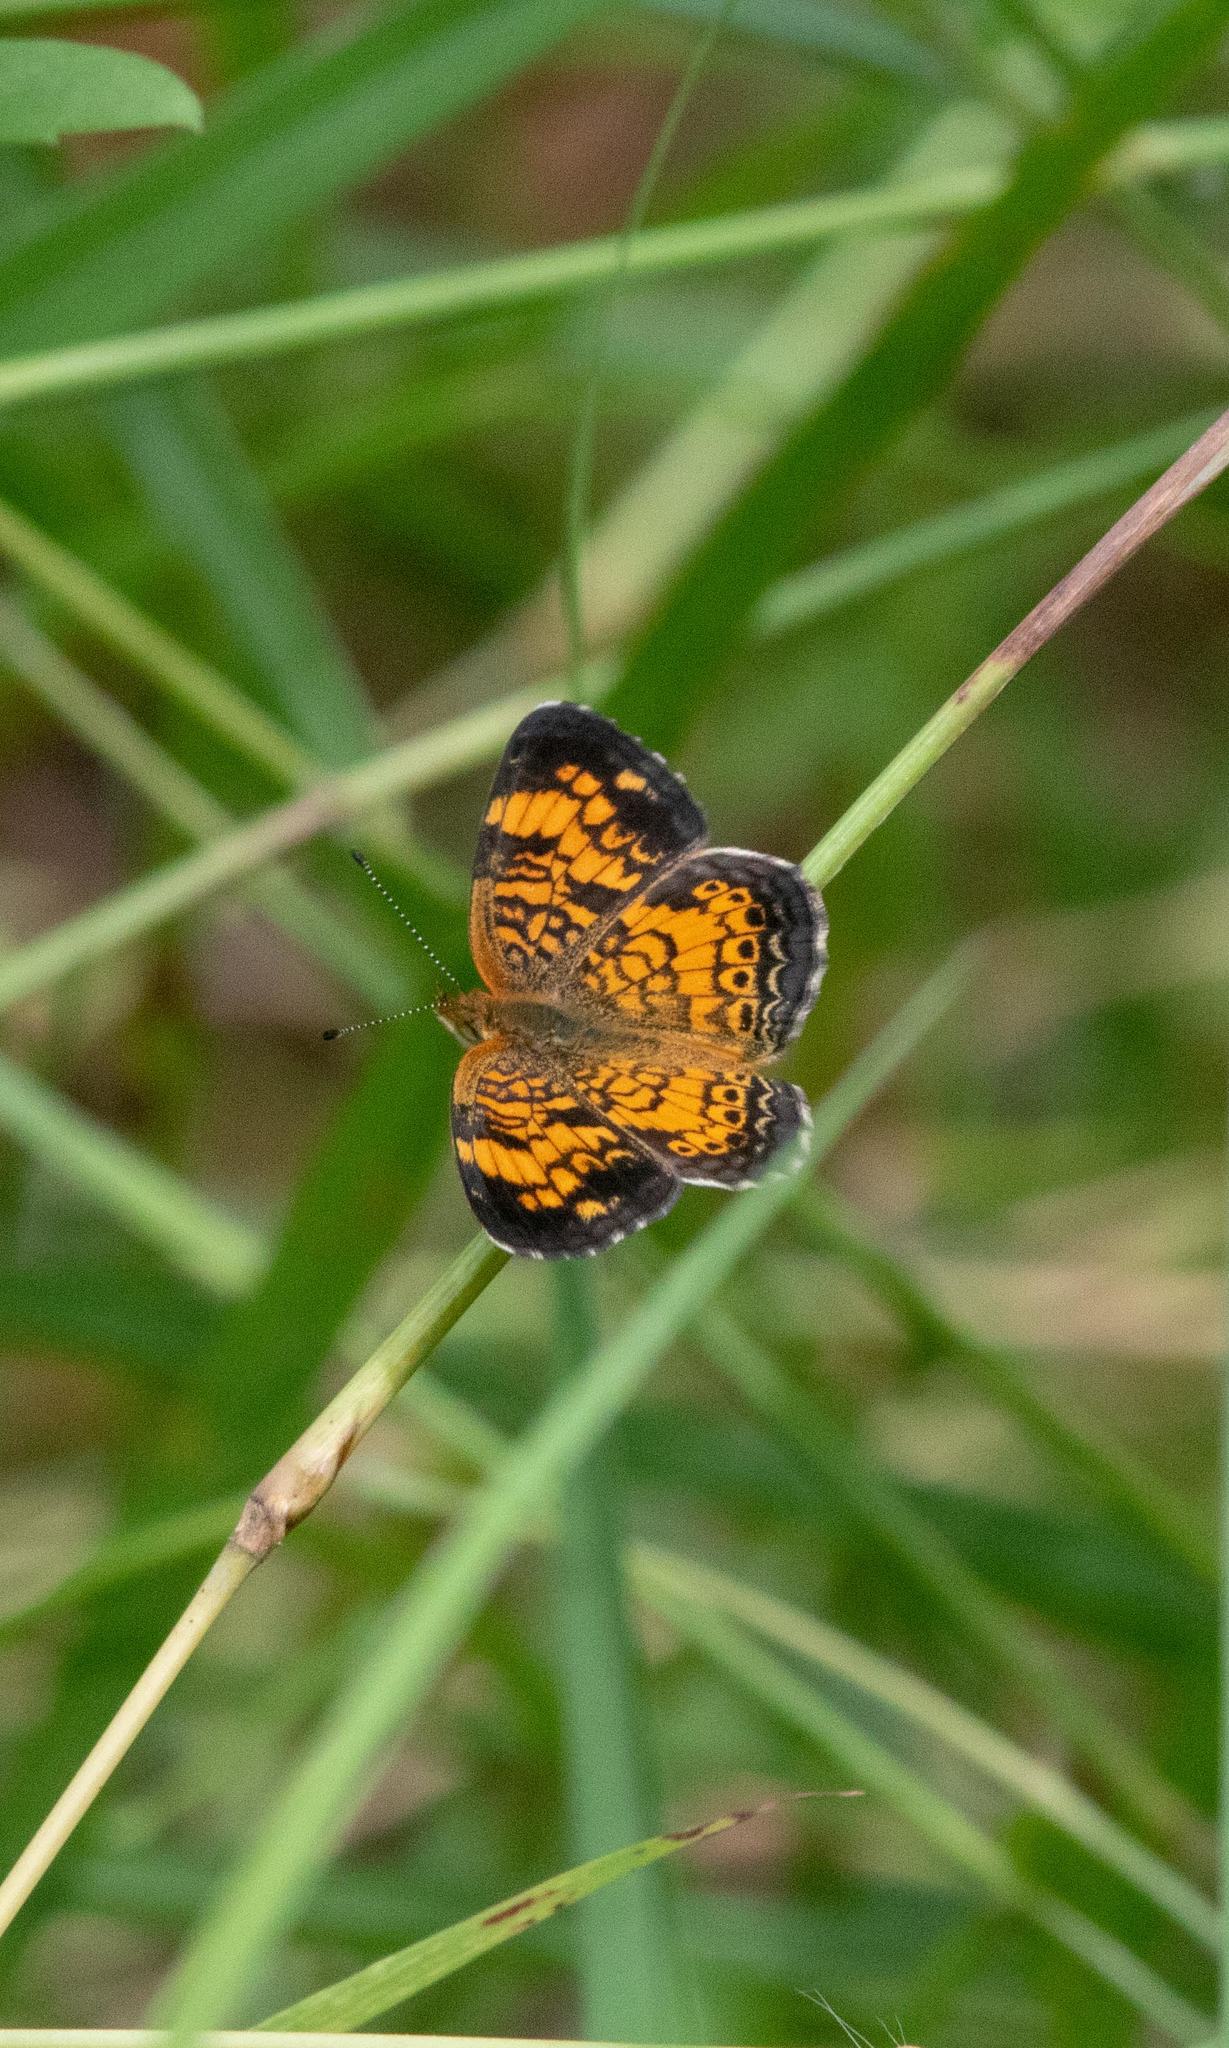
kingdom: Animalia
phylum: Arthropoda
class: Insecta
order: Lepidoptera
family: Nymphalidae
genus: Phyciodes
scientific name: Phyciodes tharos
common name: Pearl crescent
